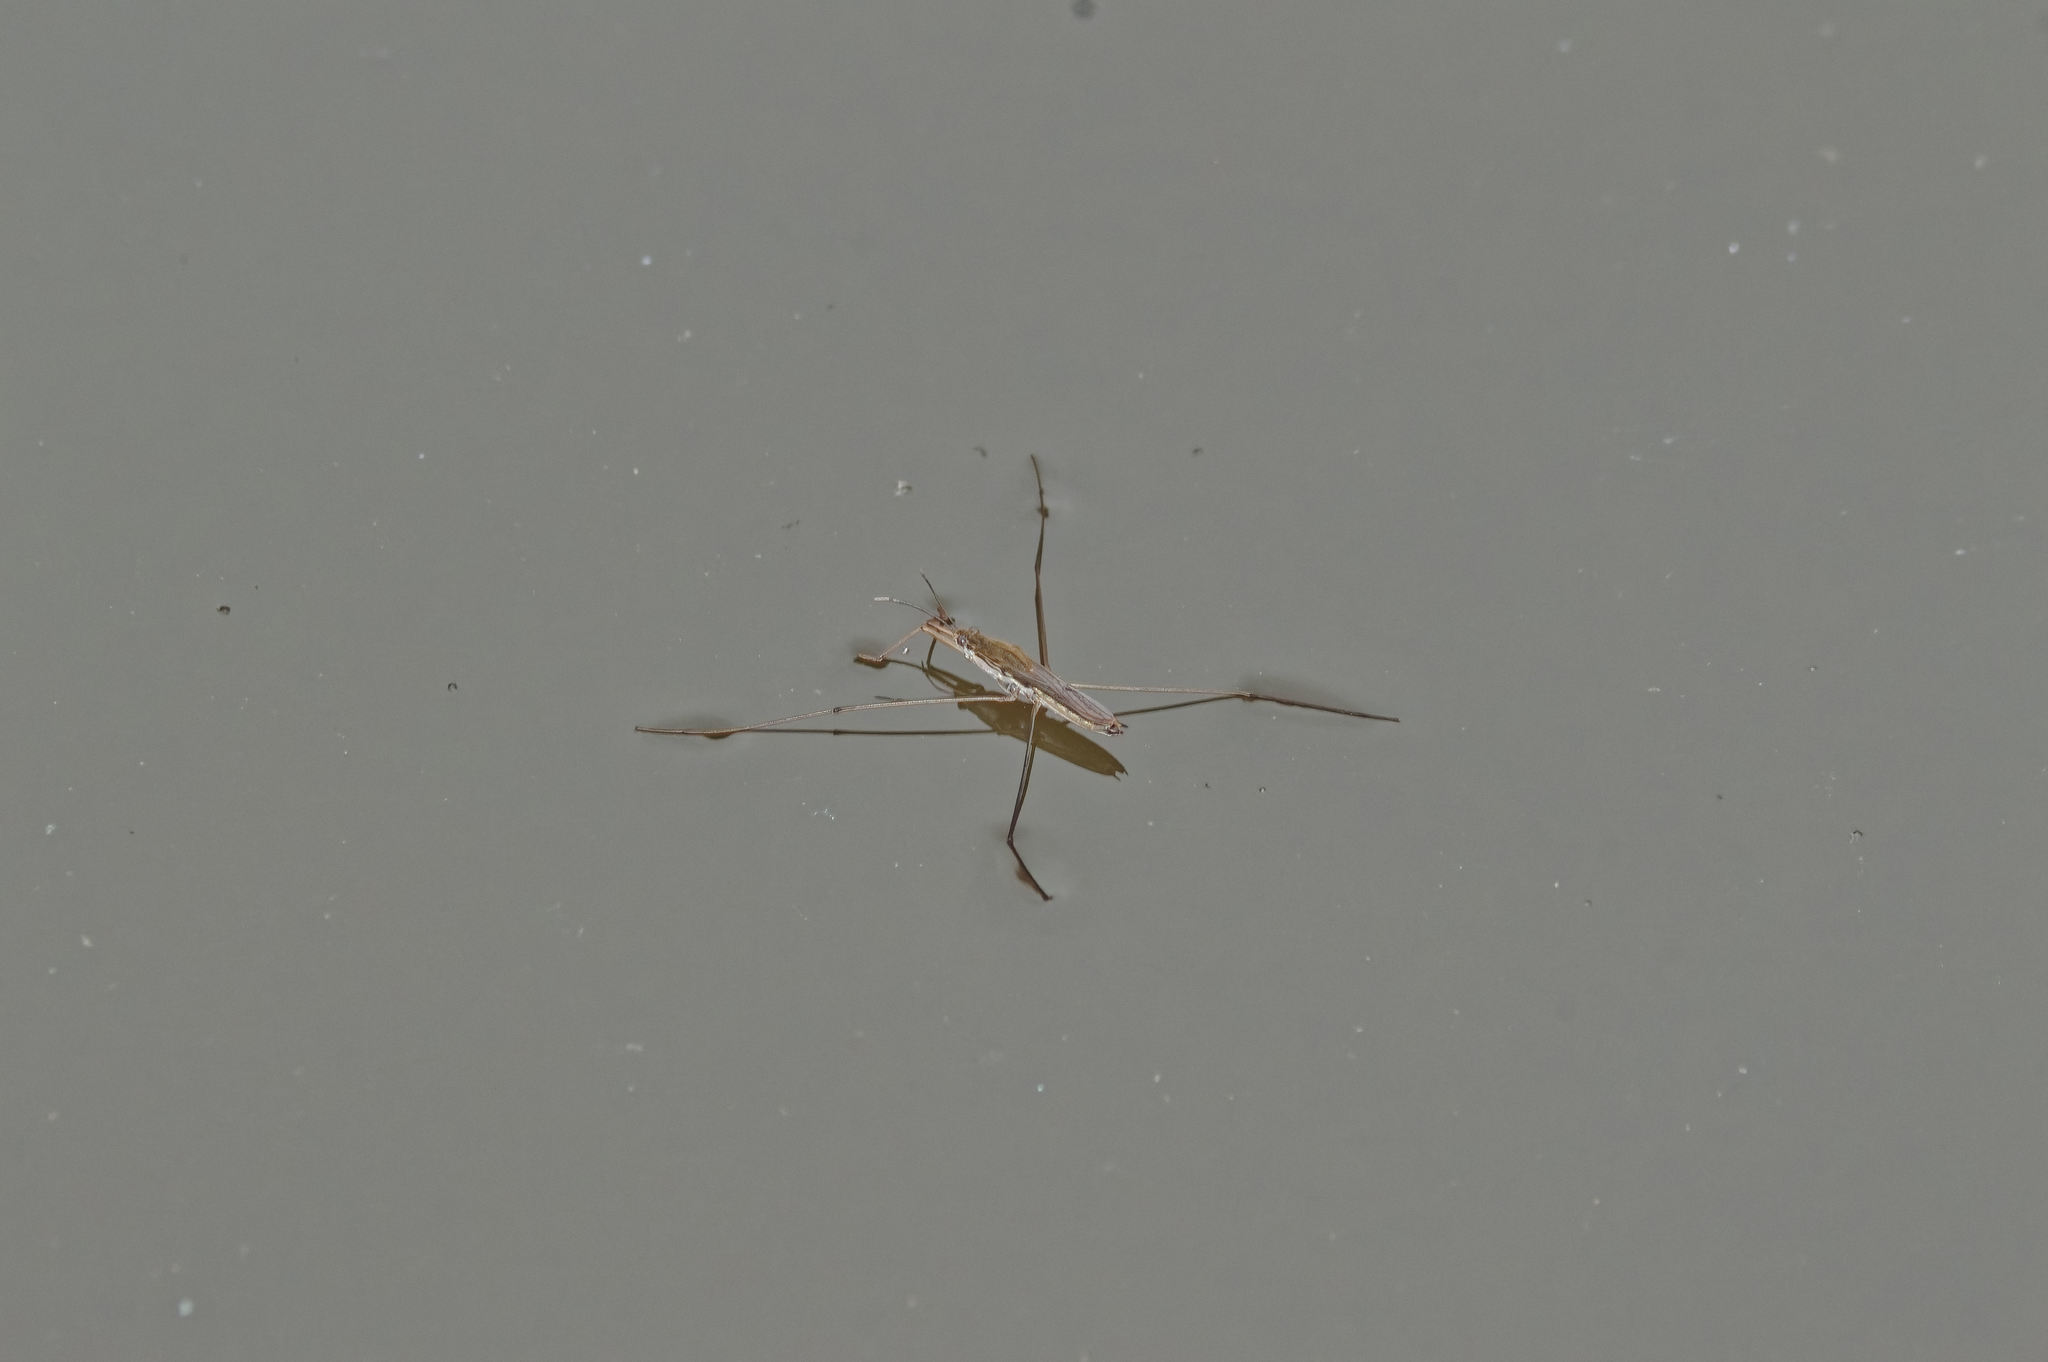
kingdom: Animalia
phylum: Arthropoda
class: Insecta
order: Hemiptera
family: Gerridae
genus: Aquarius
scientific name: Aquarius paludum
